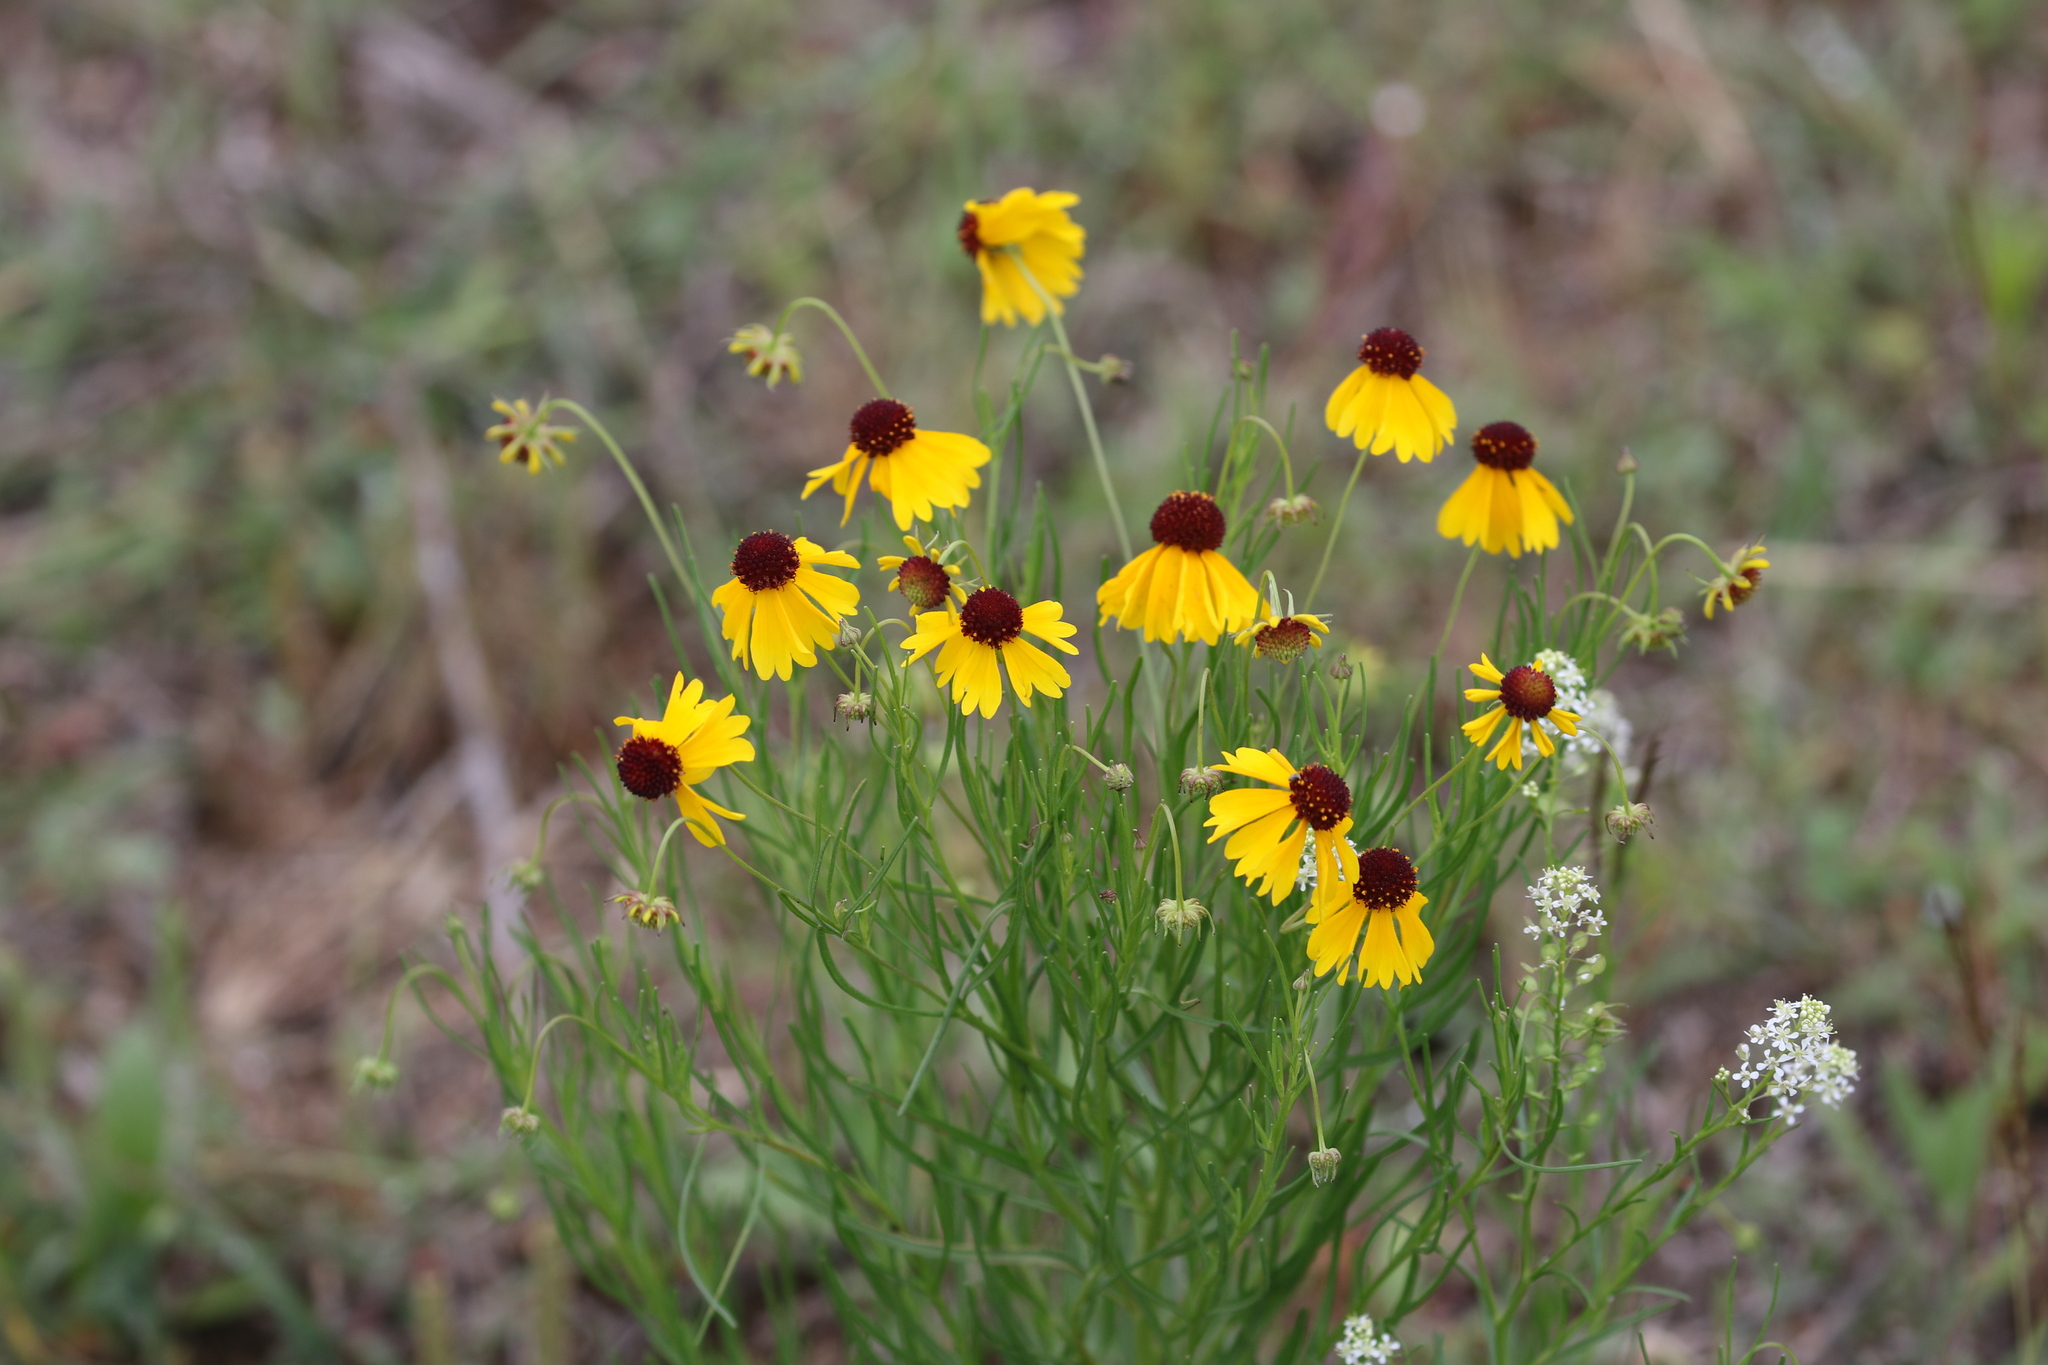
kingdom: Plantae
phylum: Tracheophyta
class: Magnoliopsida
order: Asterales
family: Asteraceae
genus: Helenium
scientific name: Helenium amarum
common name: Bitter sneezeweed
